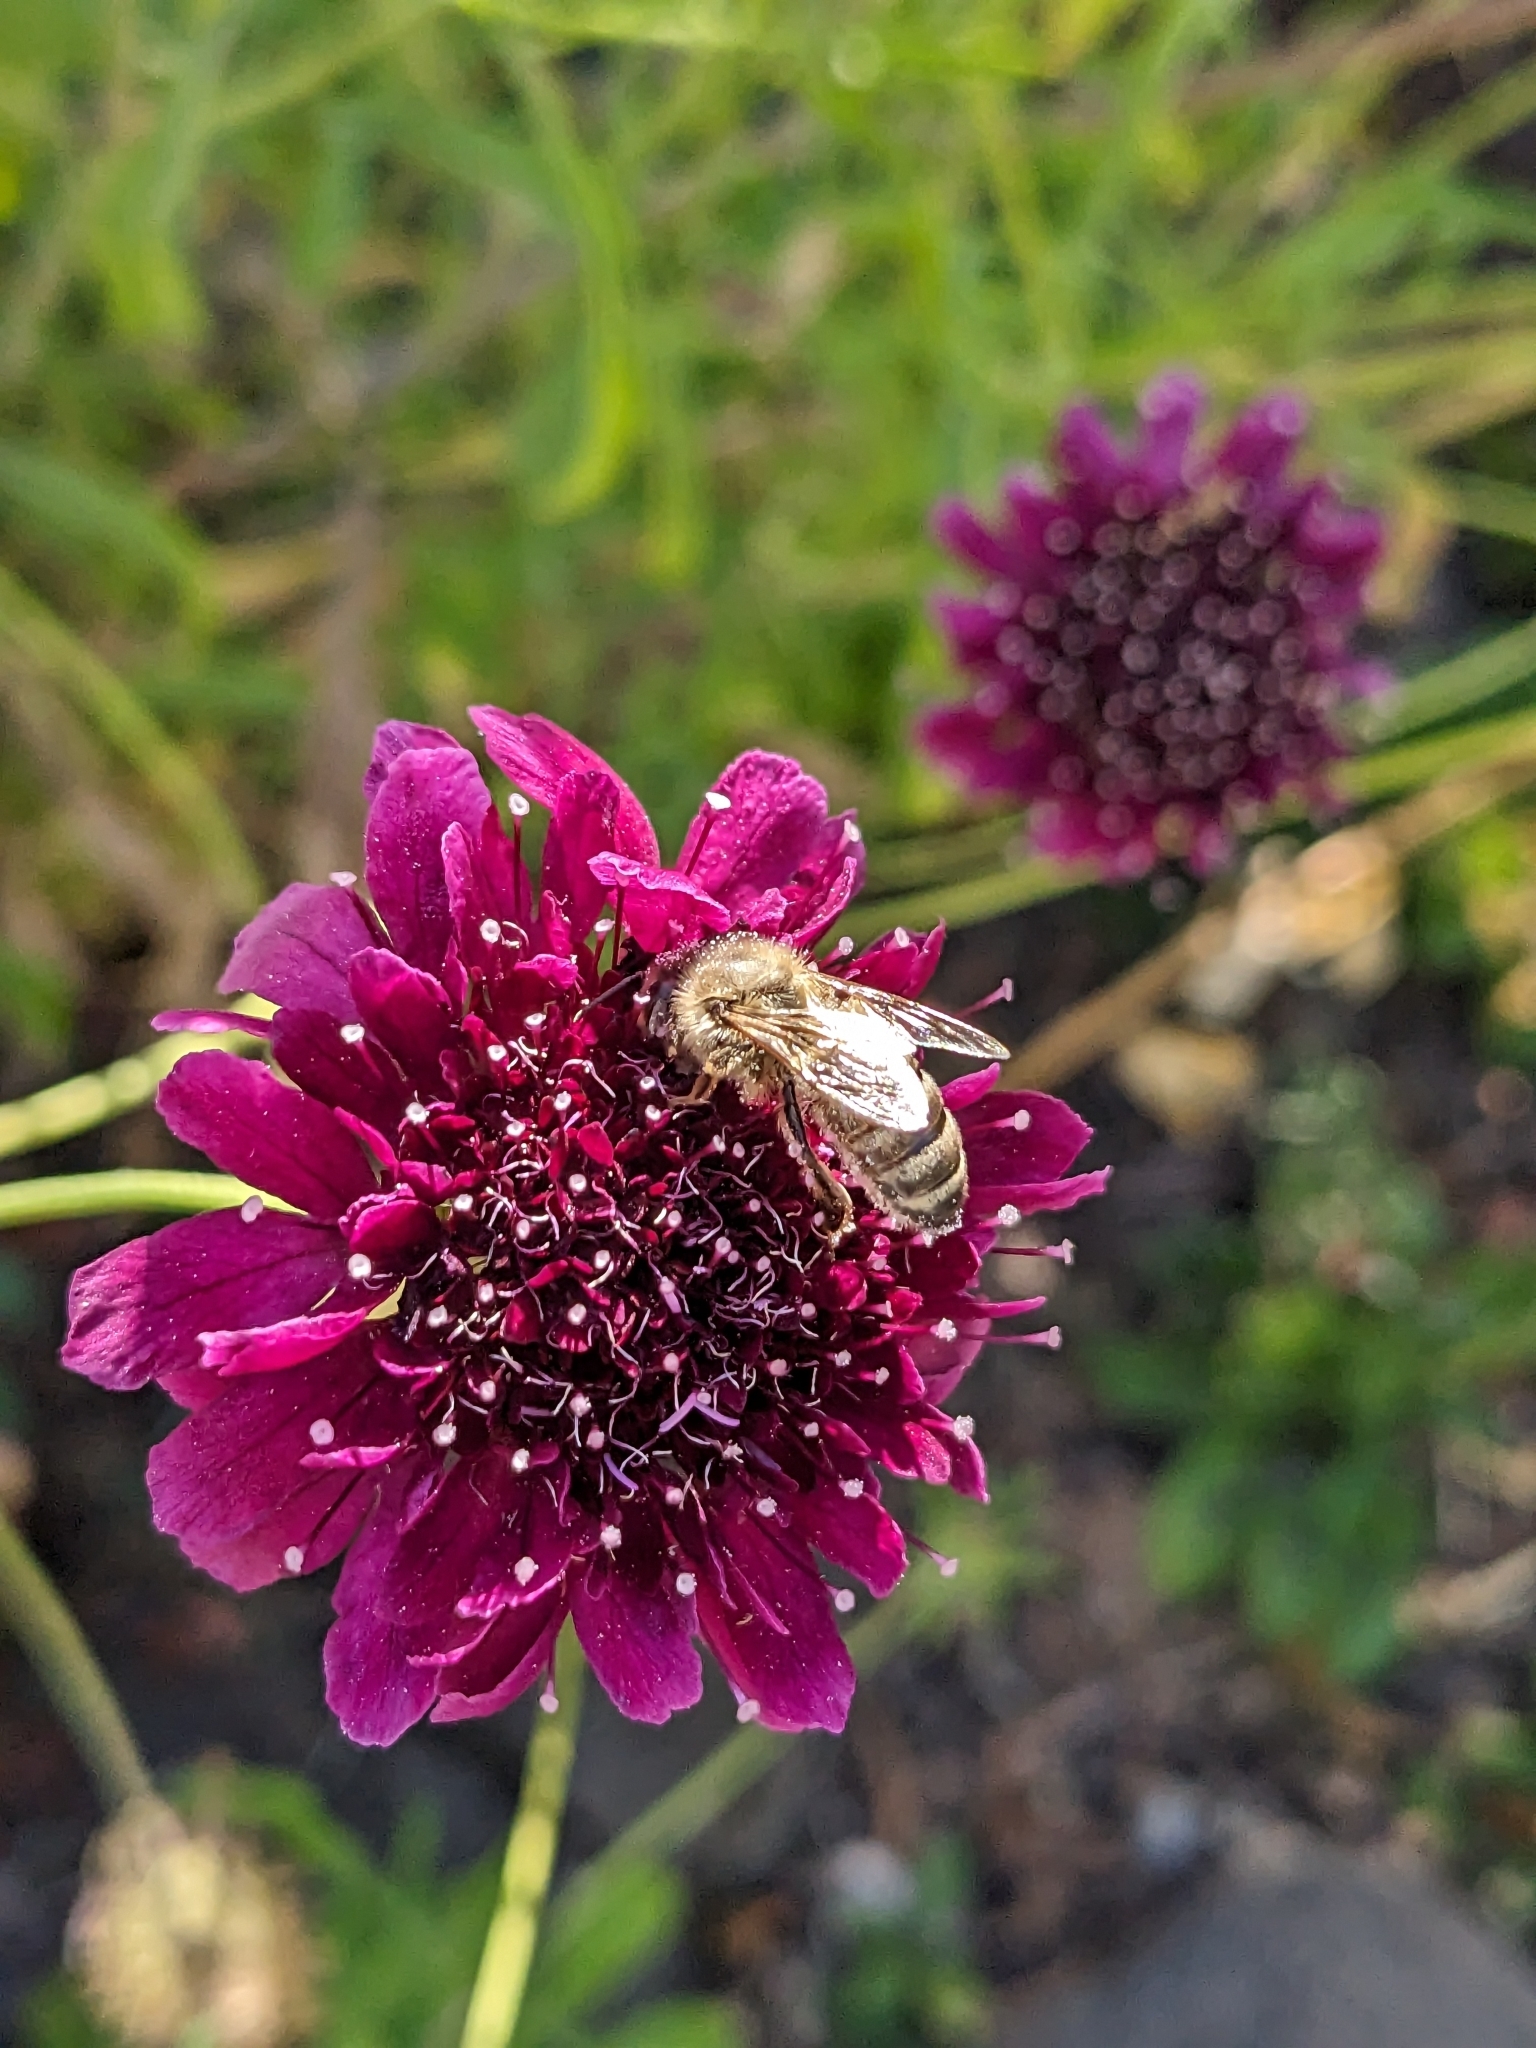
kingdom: Animalia
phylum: Arthropoda
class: Insecta
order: Hymenoptera
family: Apidae
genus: Apis
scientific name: Apis mellifera
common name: Honey bee
